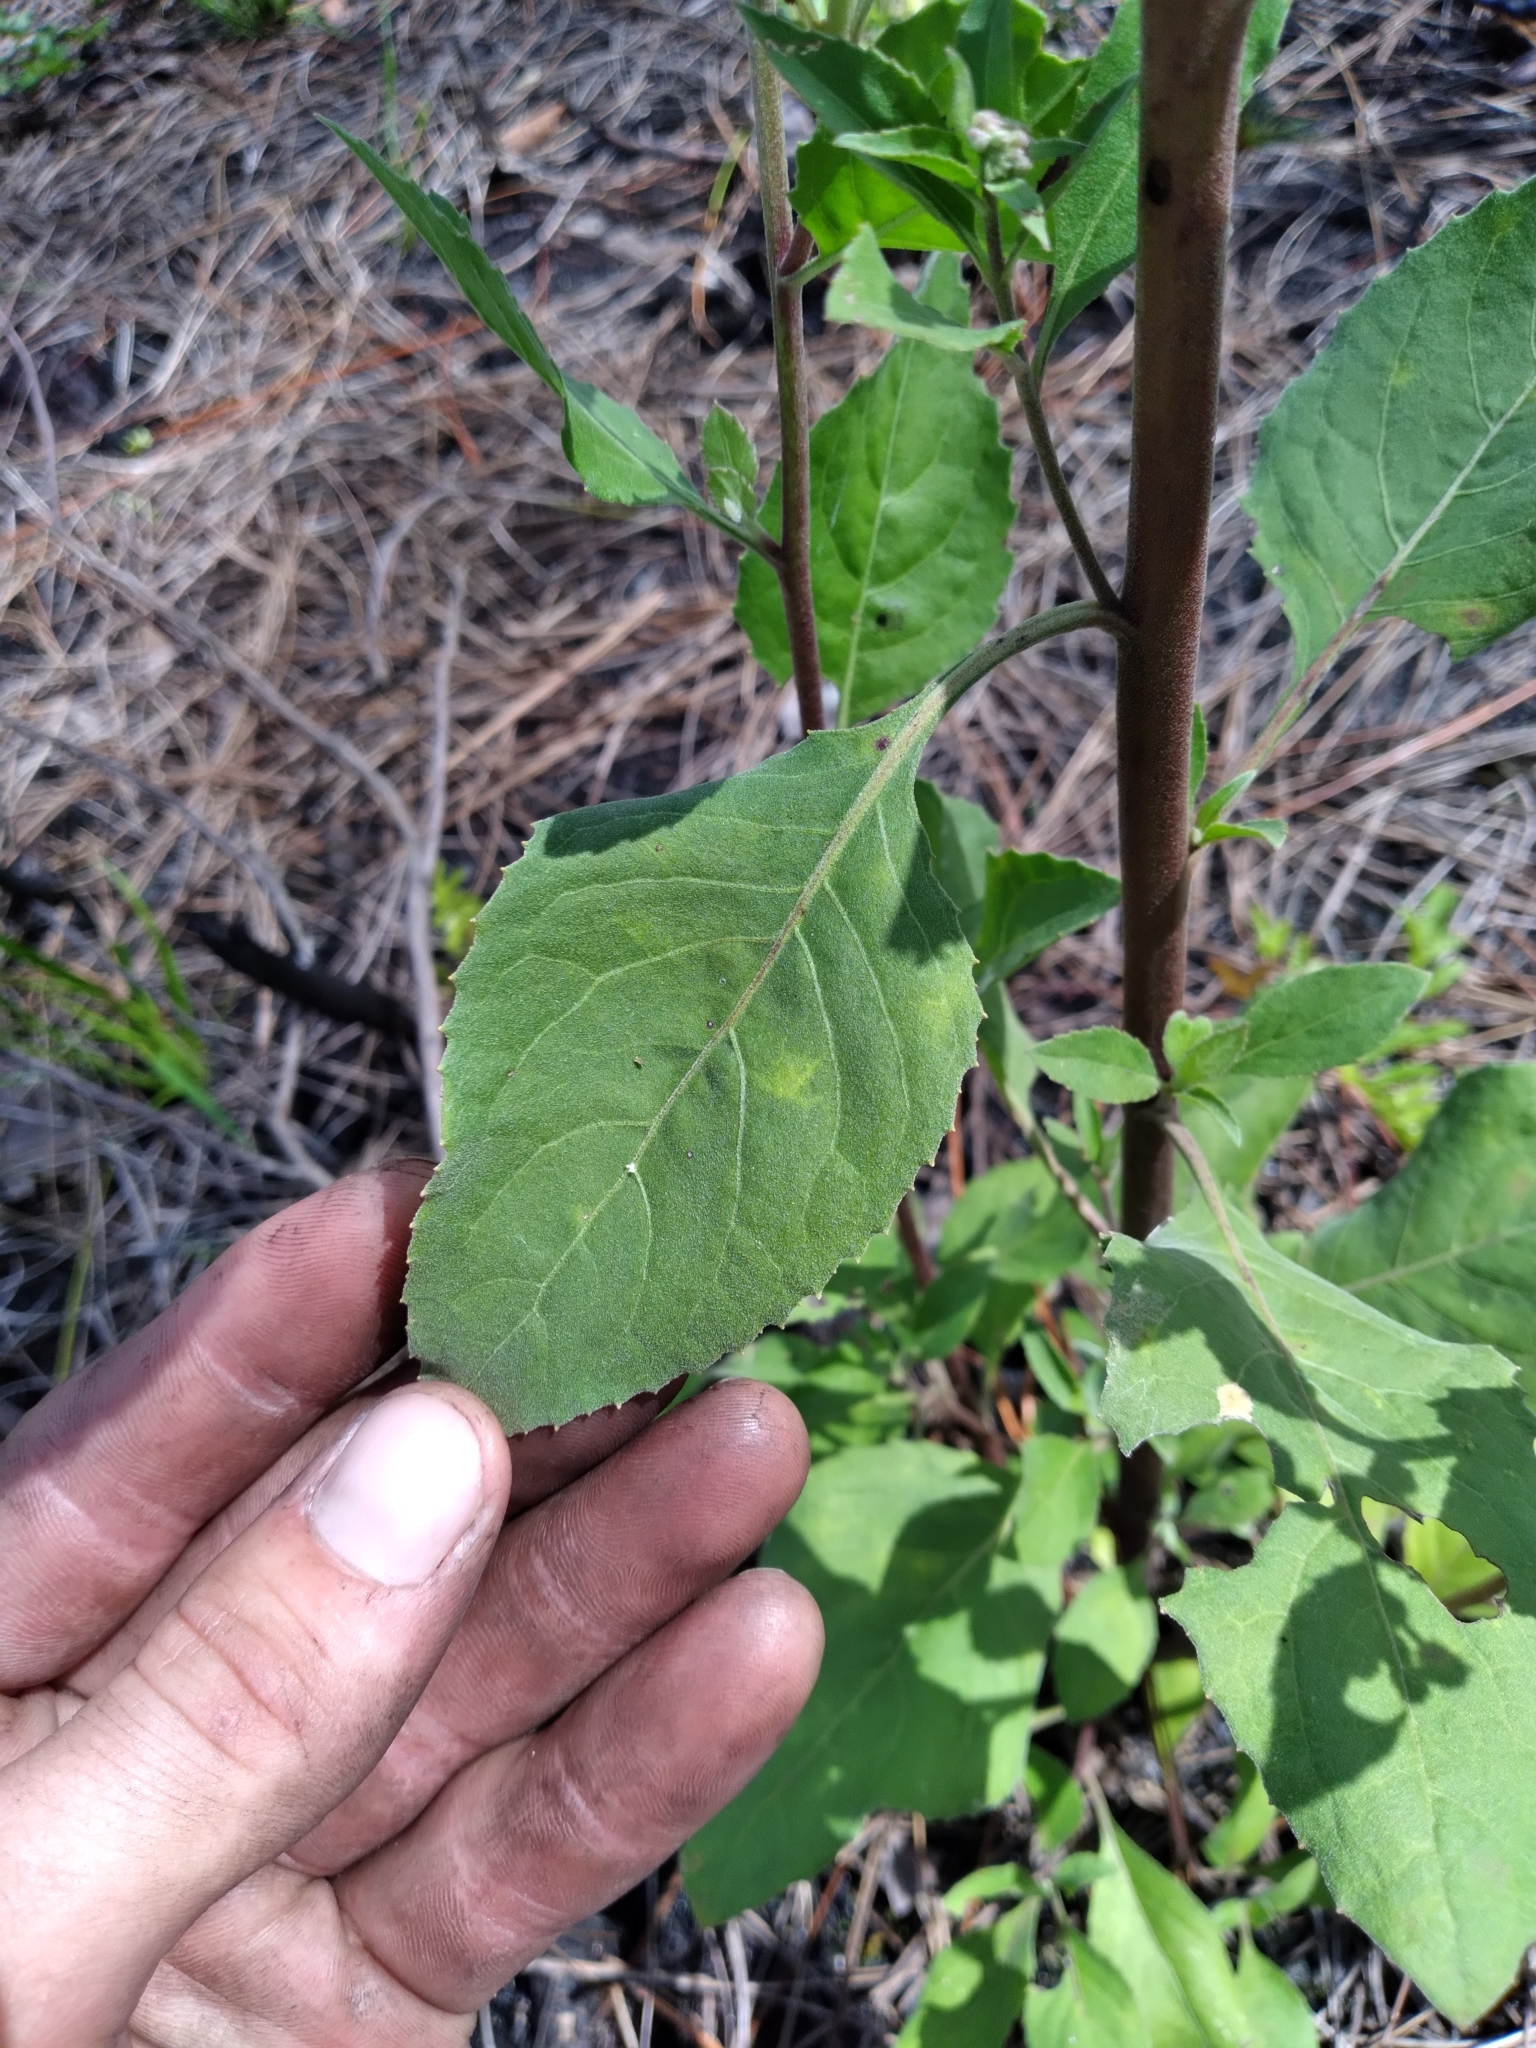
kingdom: Plantae
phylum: Tracheophyta
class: Magnoliopsida
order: Asterales
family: Asteraceae
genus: Pluchea
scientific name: Pluchea camphorata
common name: Camphor pluchea
